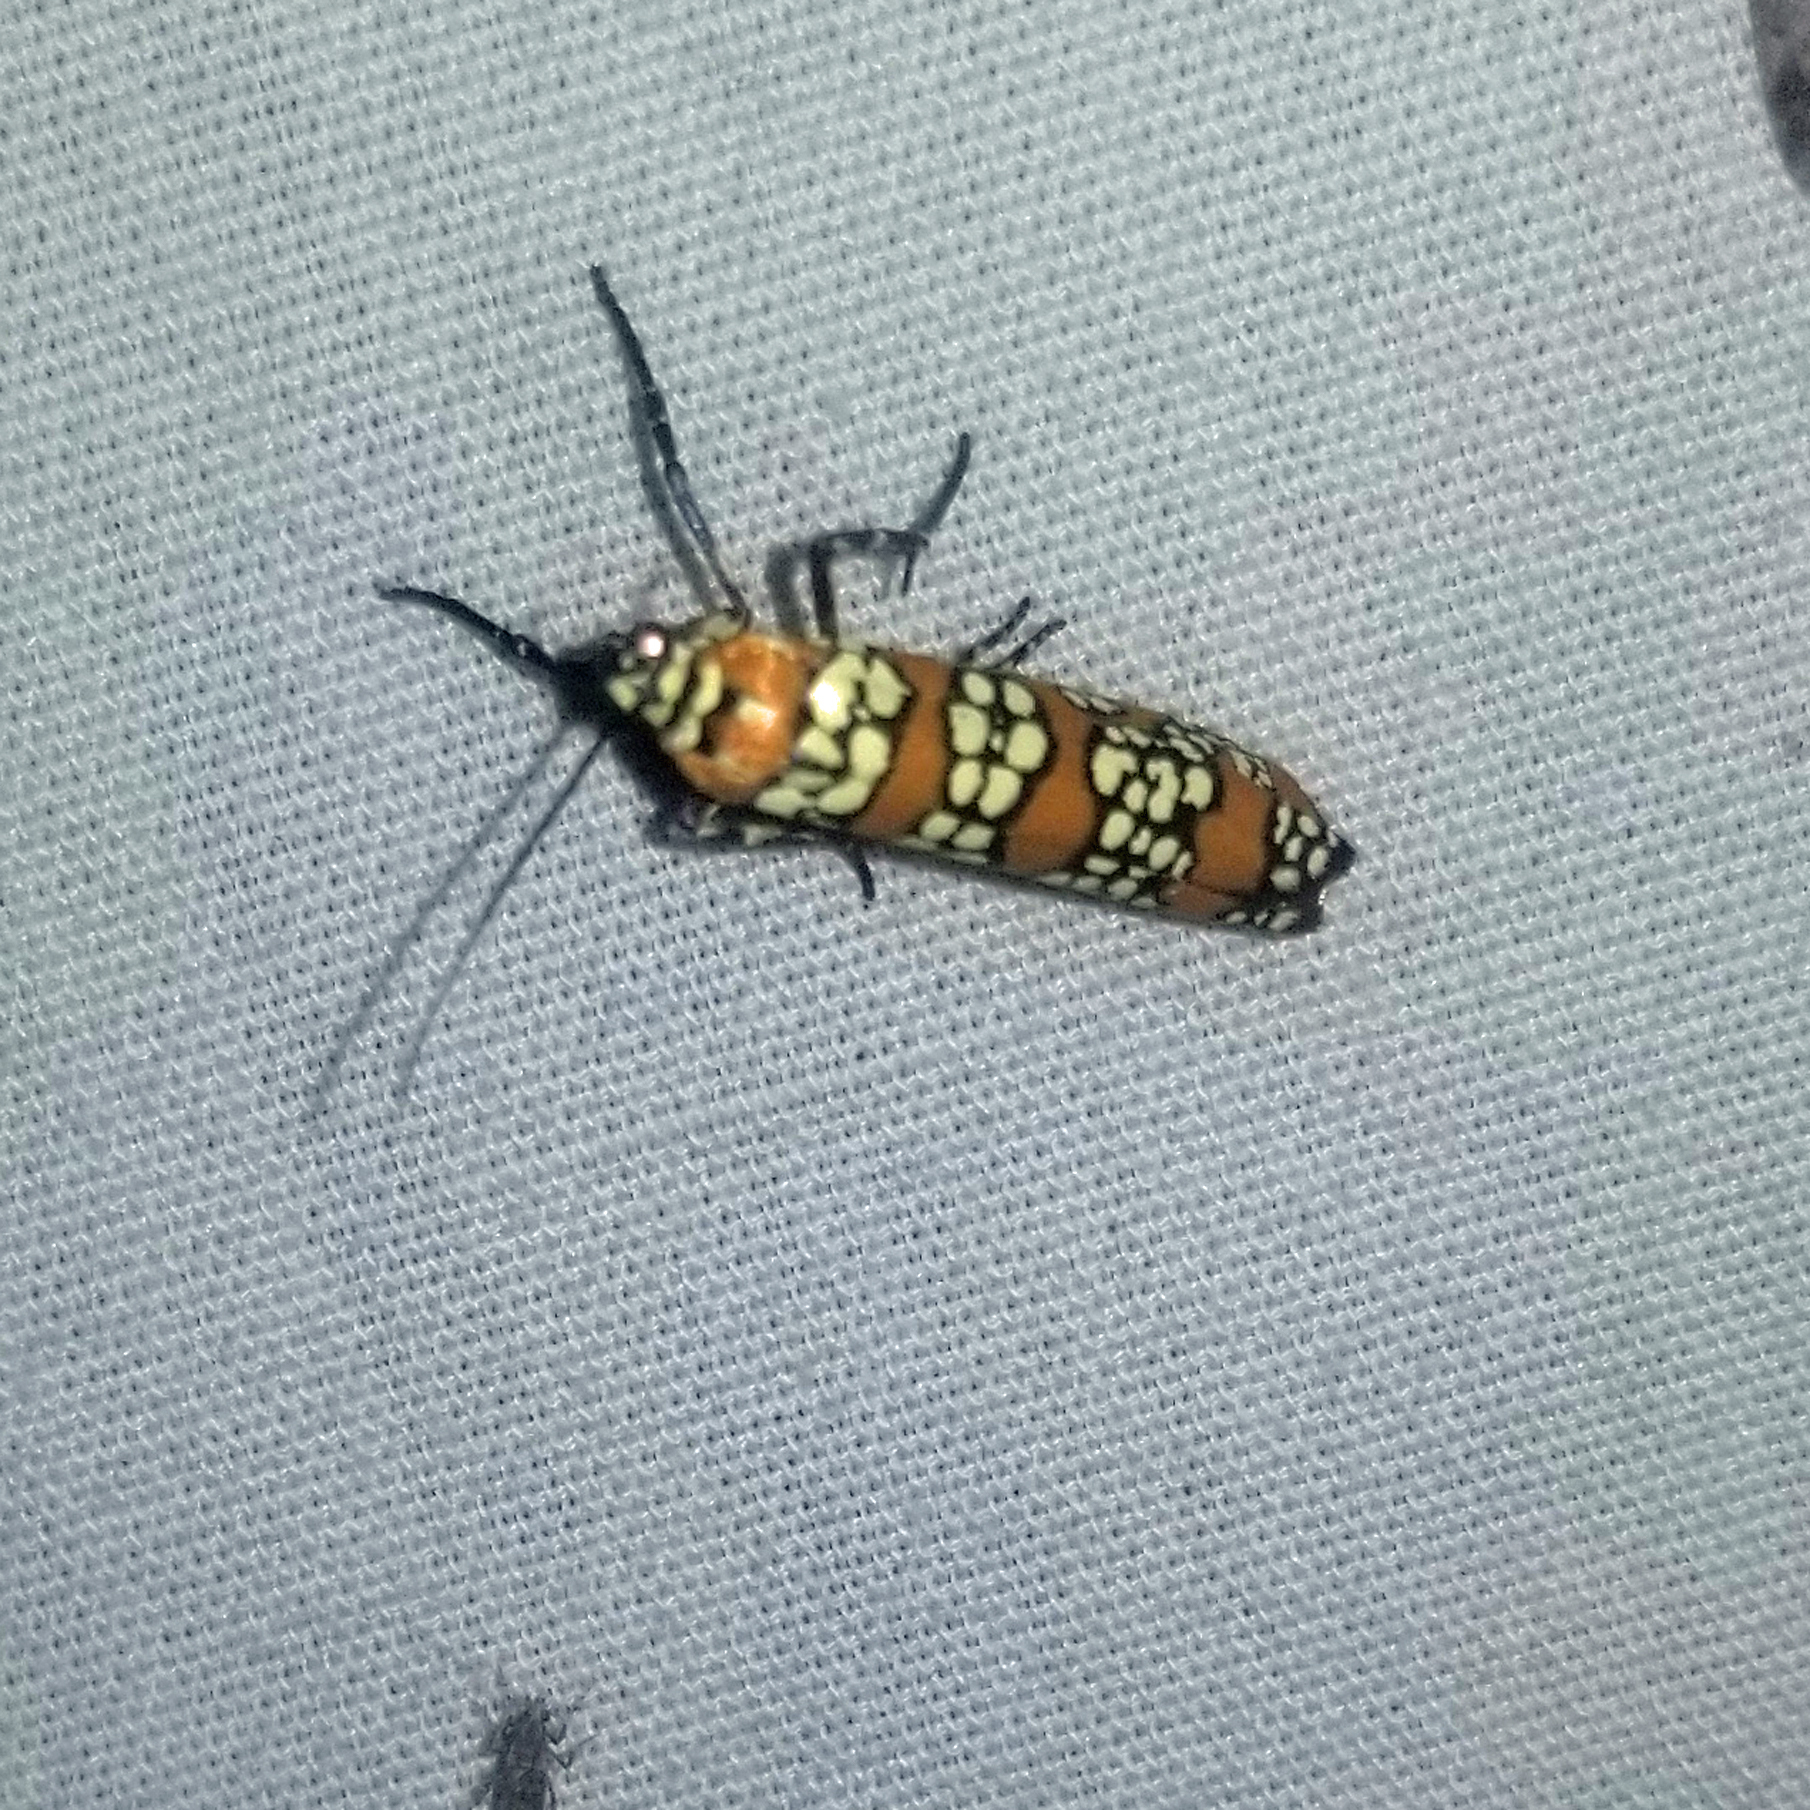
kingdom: Animalia
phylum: Arthropoda
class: Insecta
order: Lepidoptera
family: Attevidae
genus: Atteva
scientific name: Atteva punctella
